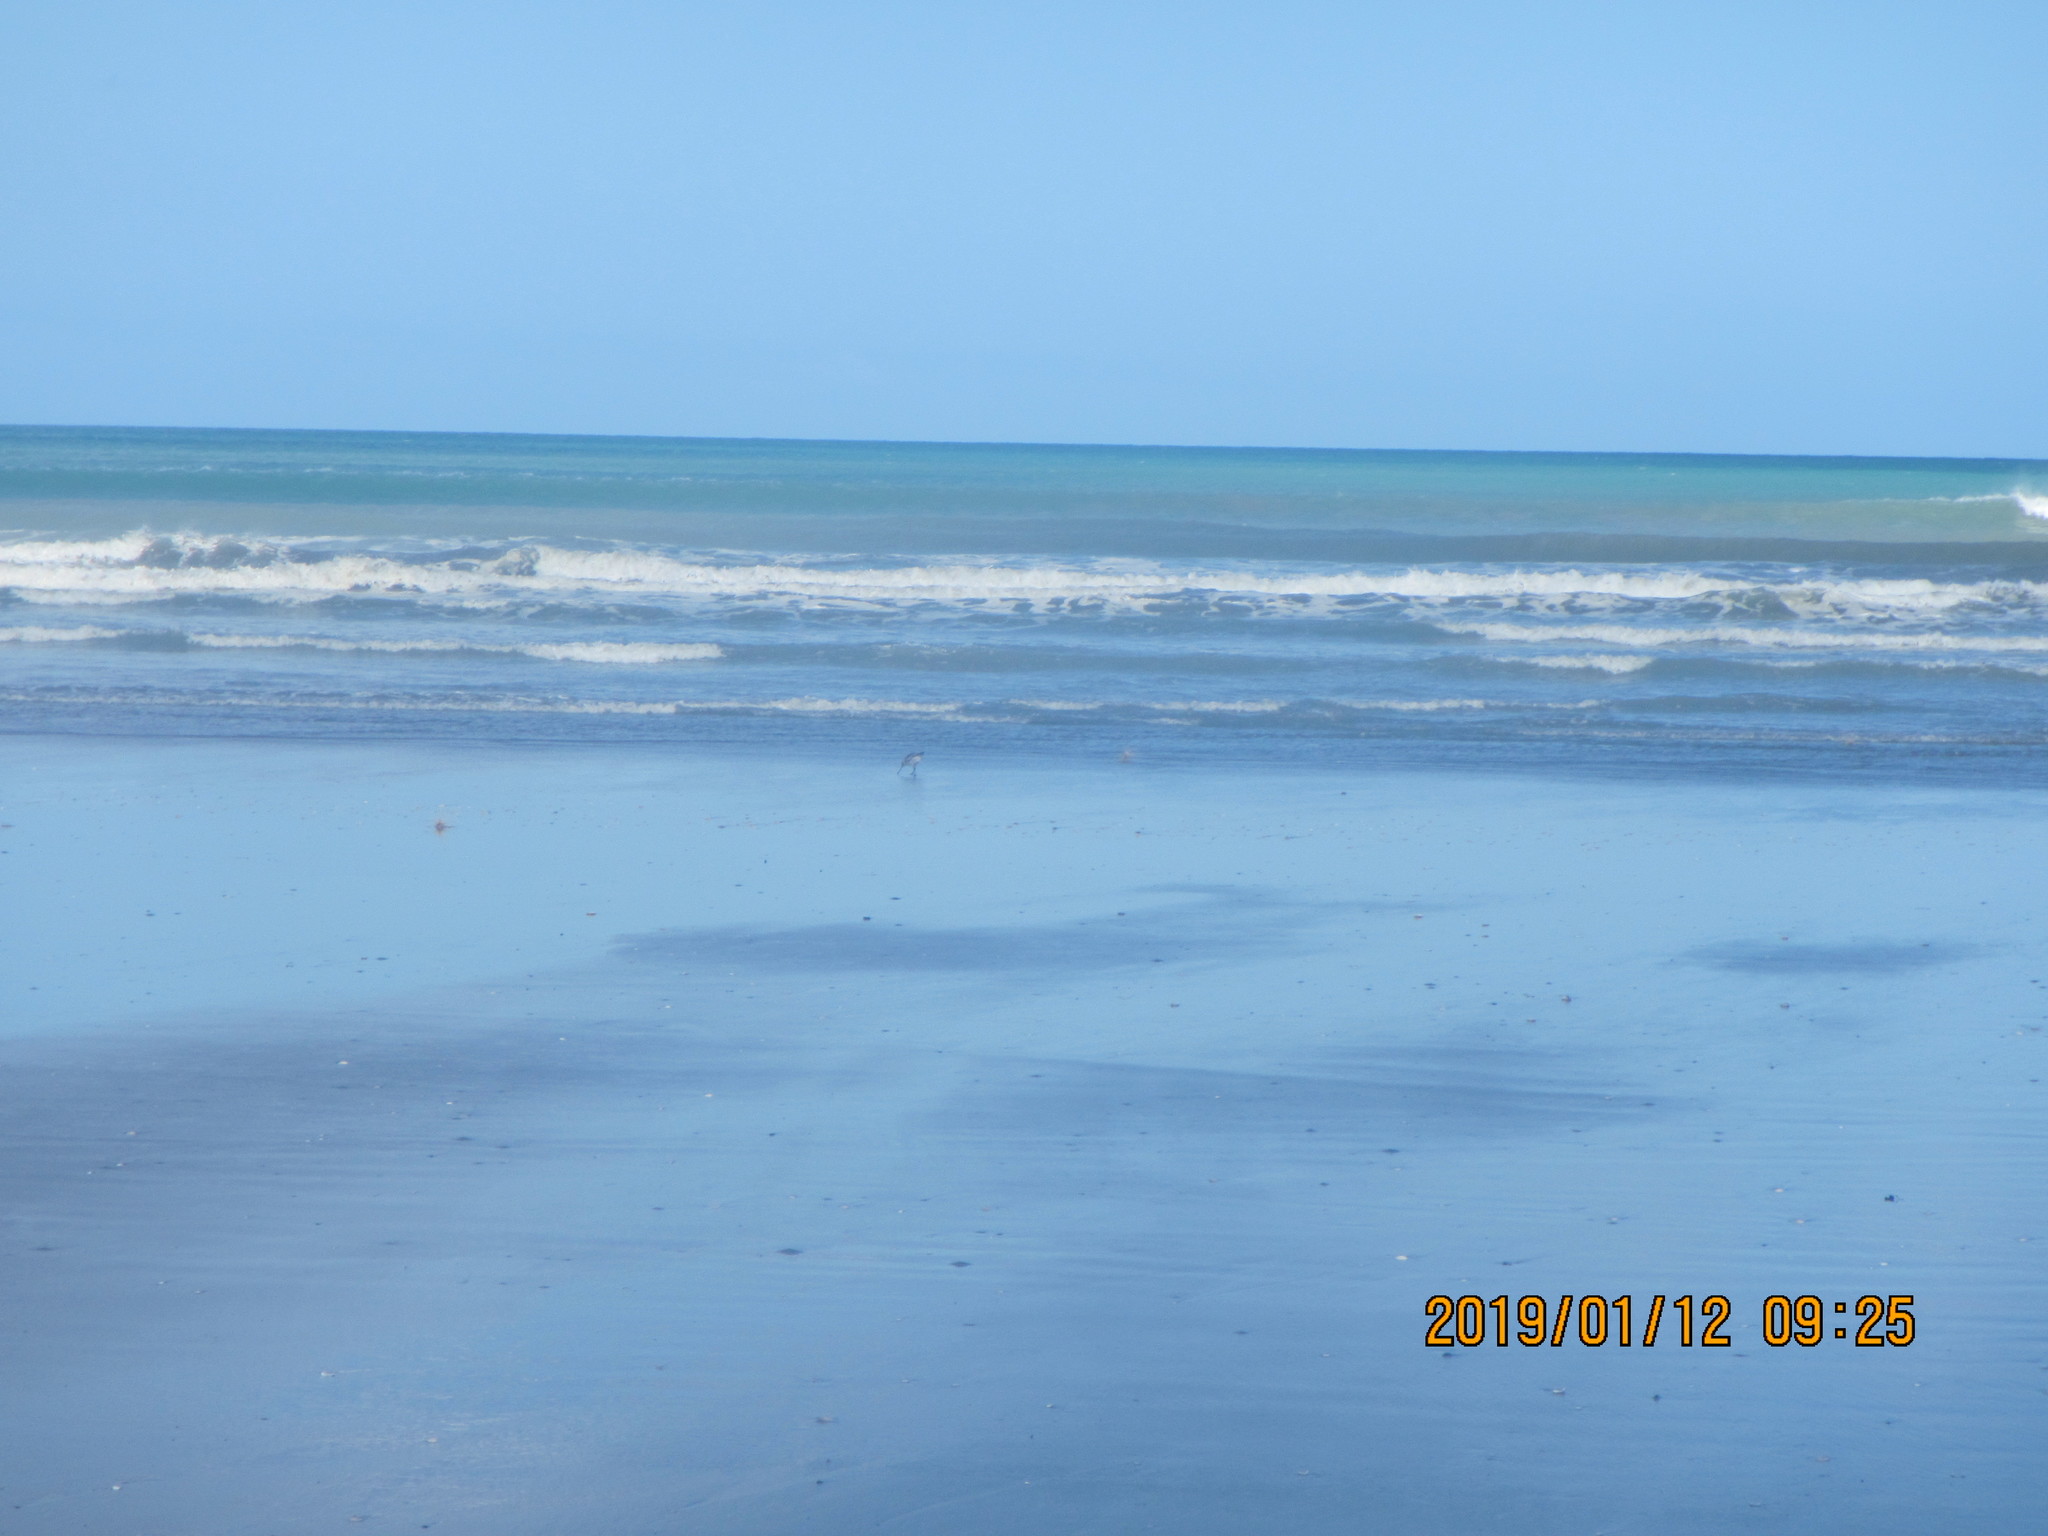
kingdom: Animalia
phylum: Chordata
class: Aves
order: Charadriiformes
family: Scolopacidae
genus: Limosa
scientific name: Limosa lapponica
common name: Bar-tailed godwit
